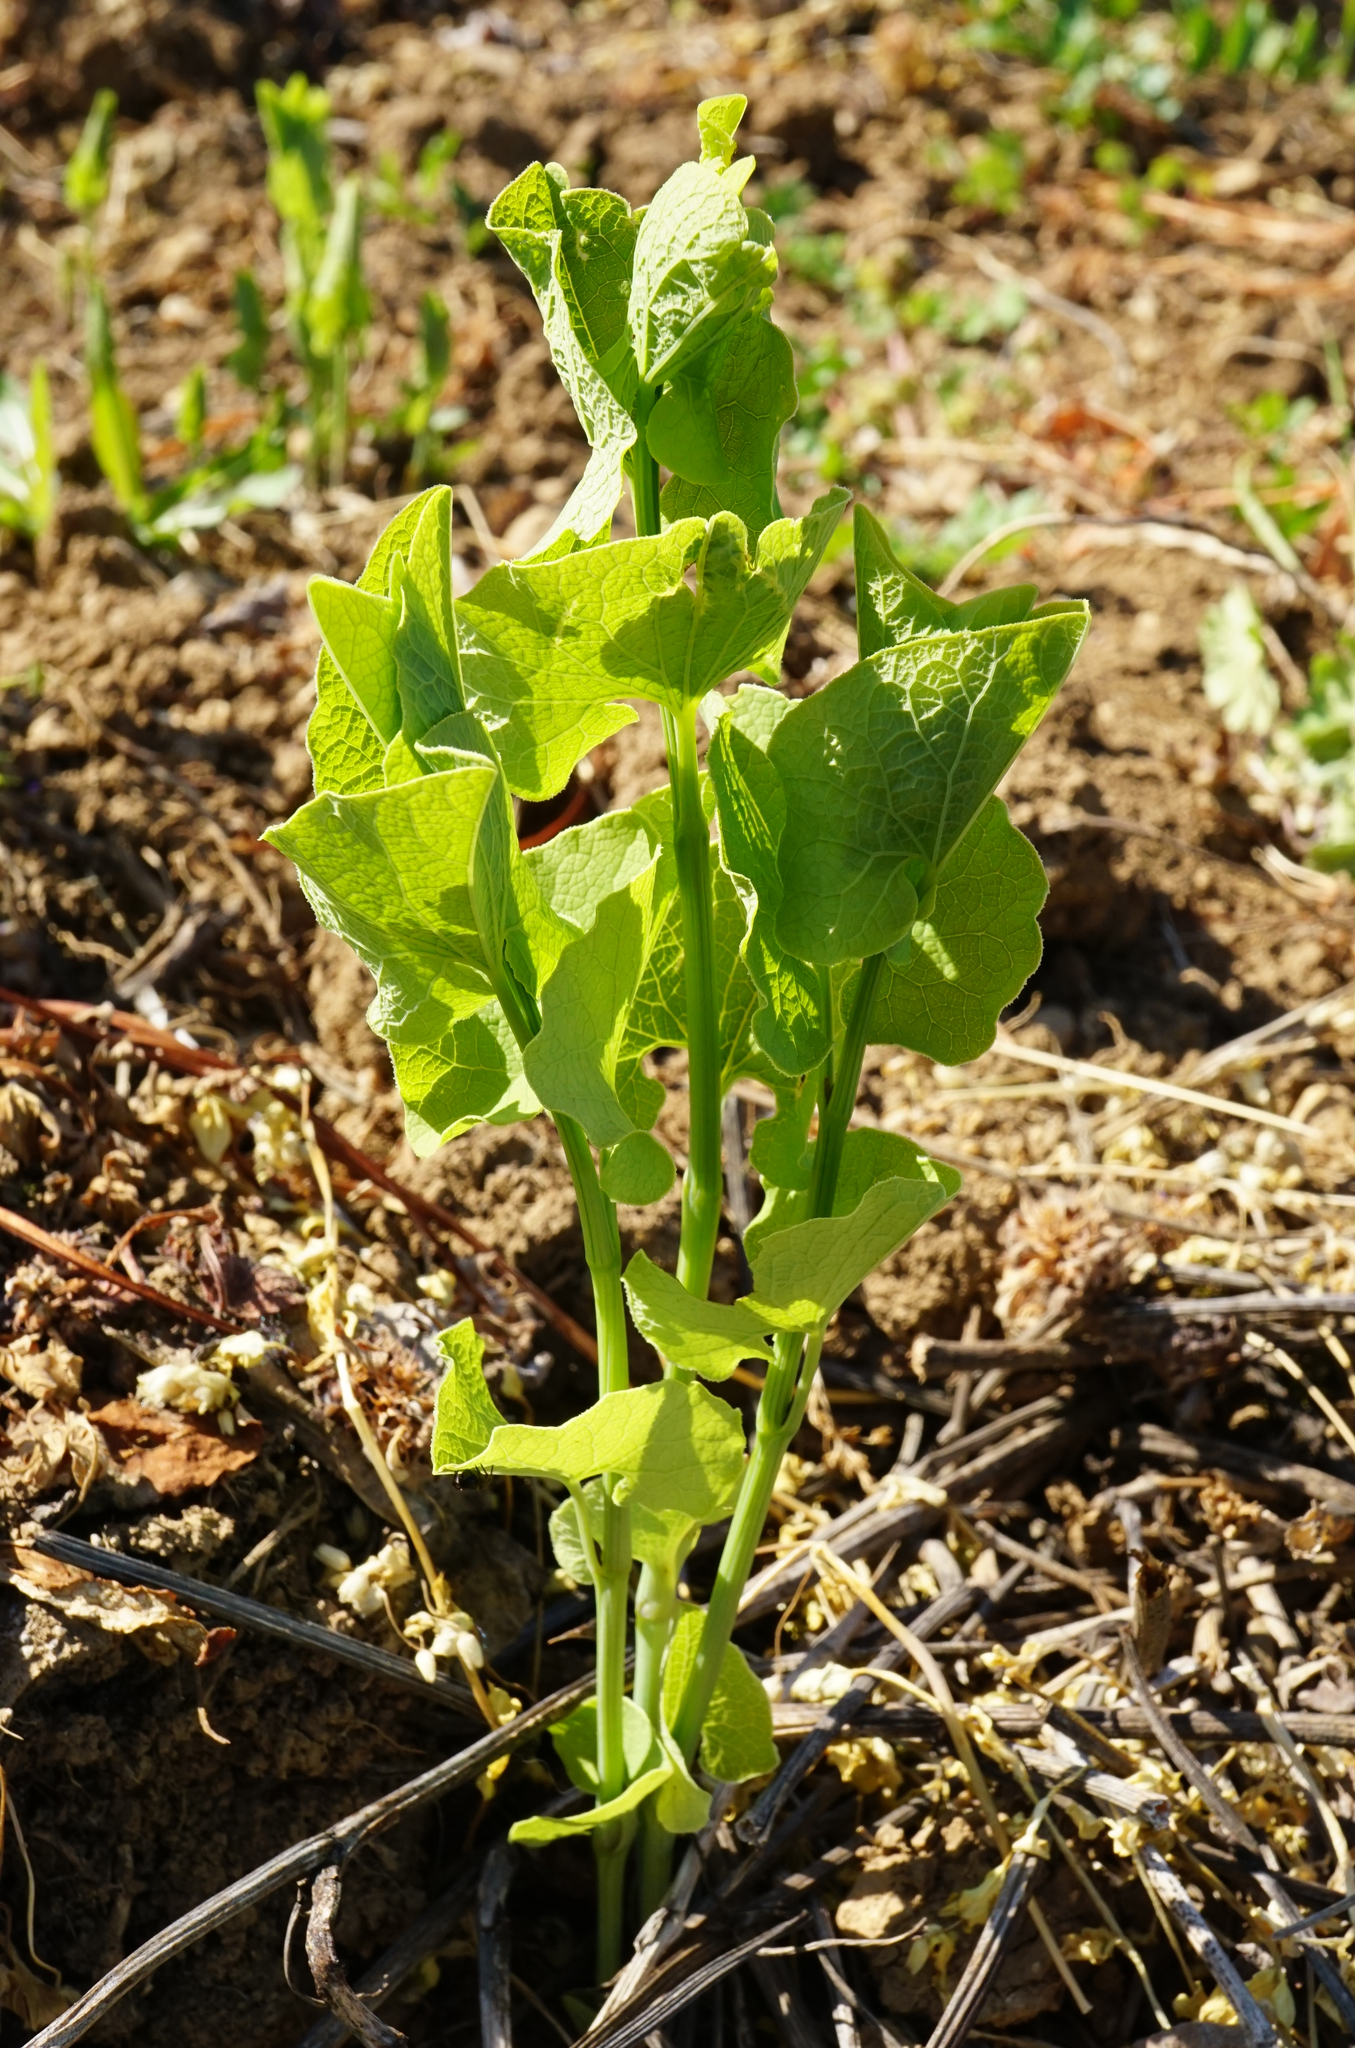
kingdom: Plantae
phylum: Tracheophyta
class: Magnoliopsida
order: Piperales
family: Aristolochiaceae
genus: Aristolochia
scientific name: Aristolochia clematitis
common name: Birthwort
